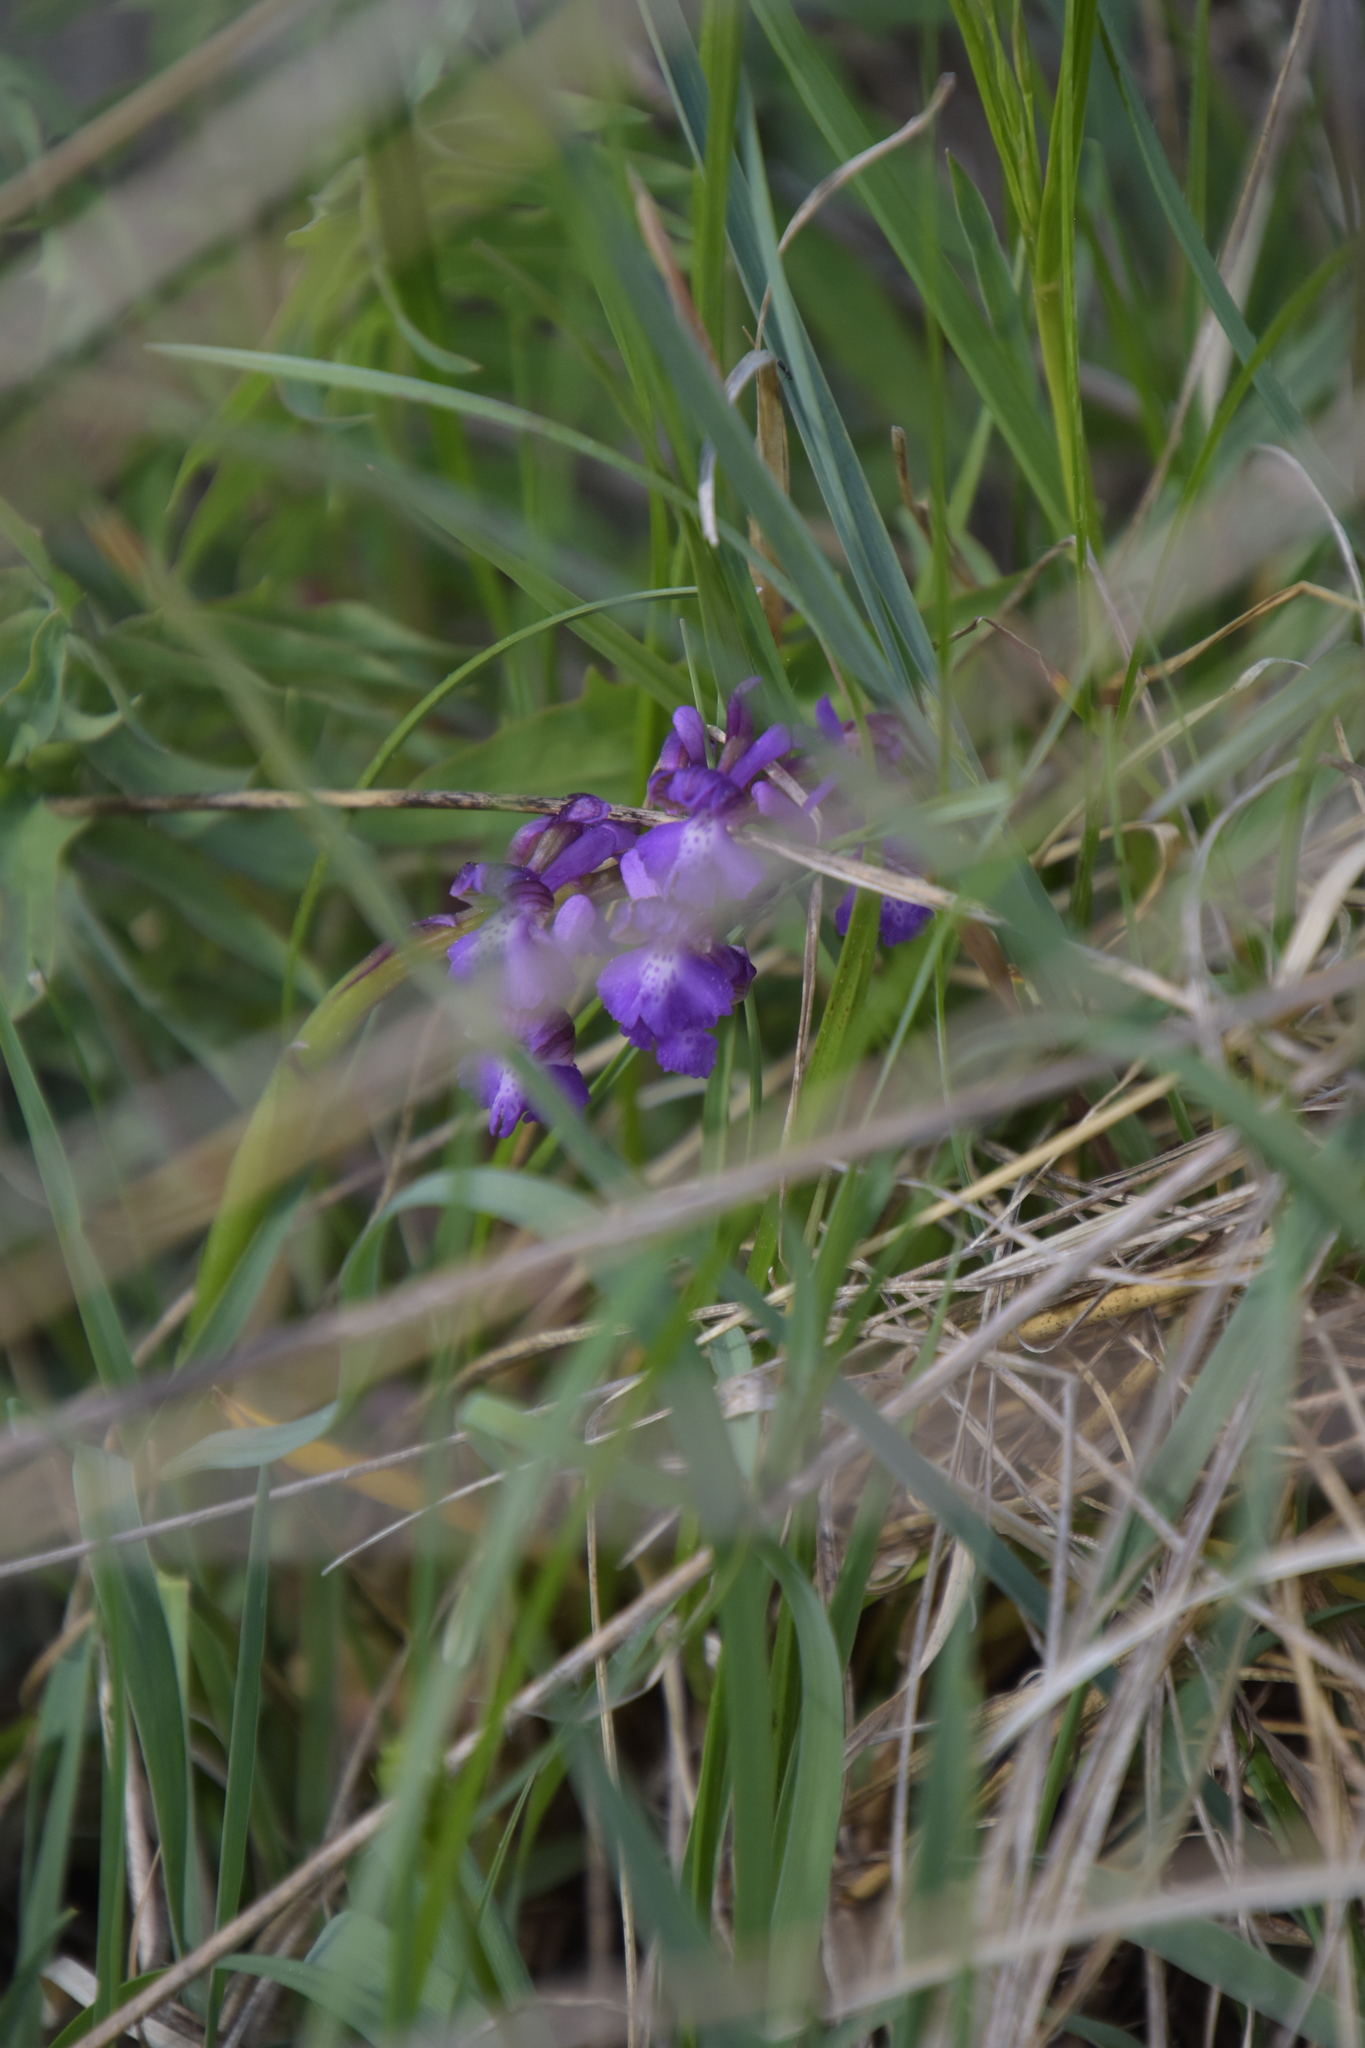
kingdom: Plantae
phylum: Tracheophyta
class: Liliopsida
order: Asparagales
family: Orchidaceae
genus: Anacamptis
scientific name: Anacamptis morio
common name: Green-winged orchid
